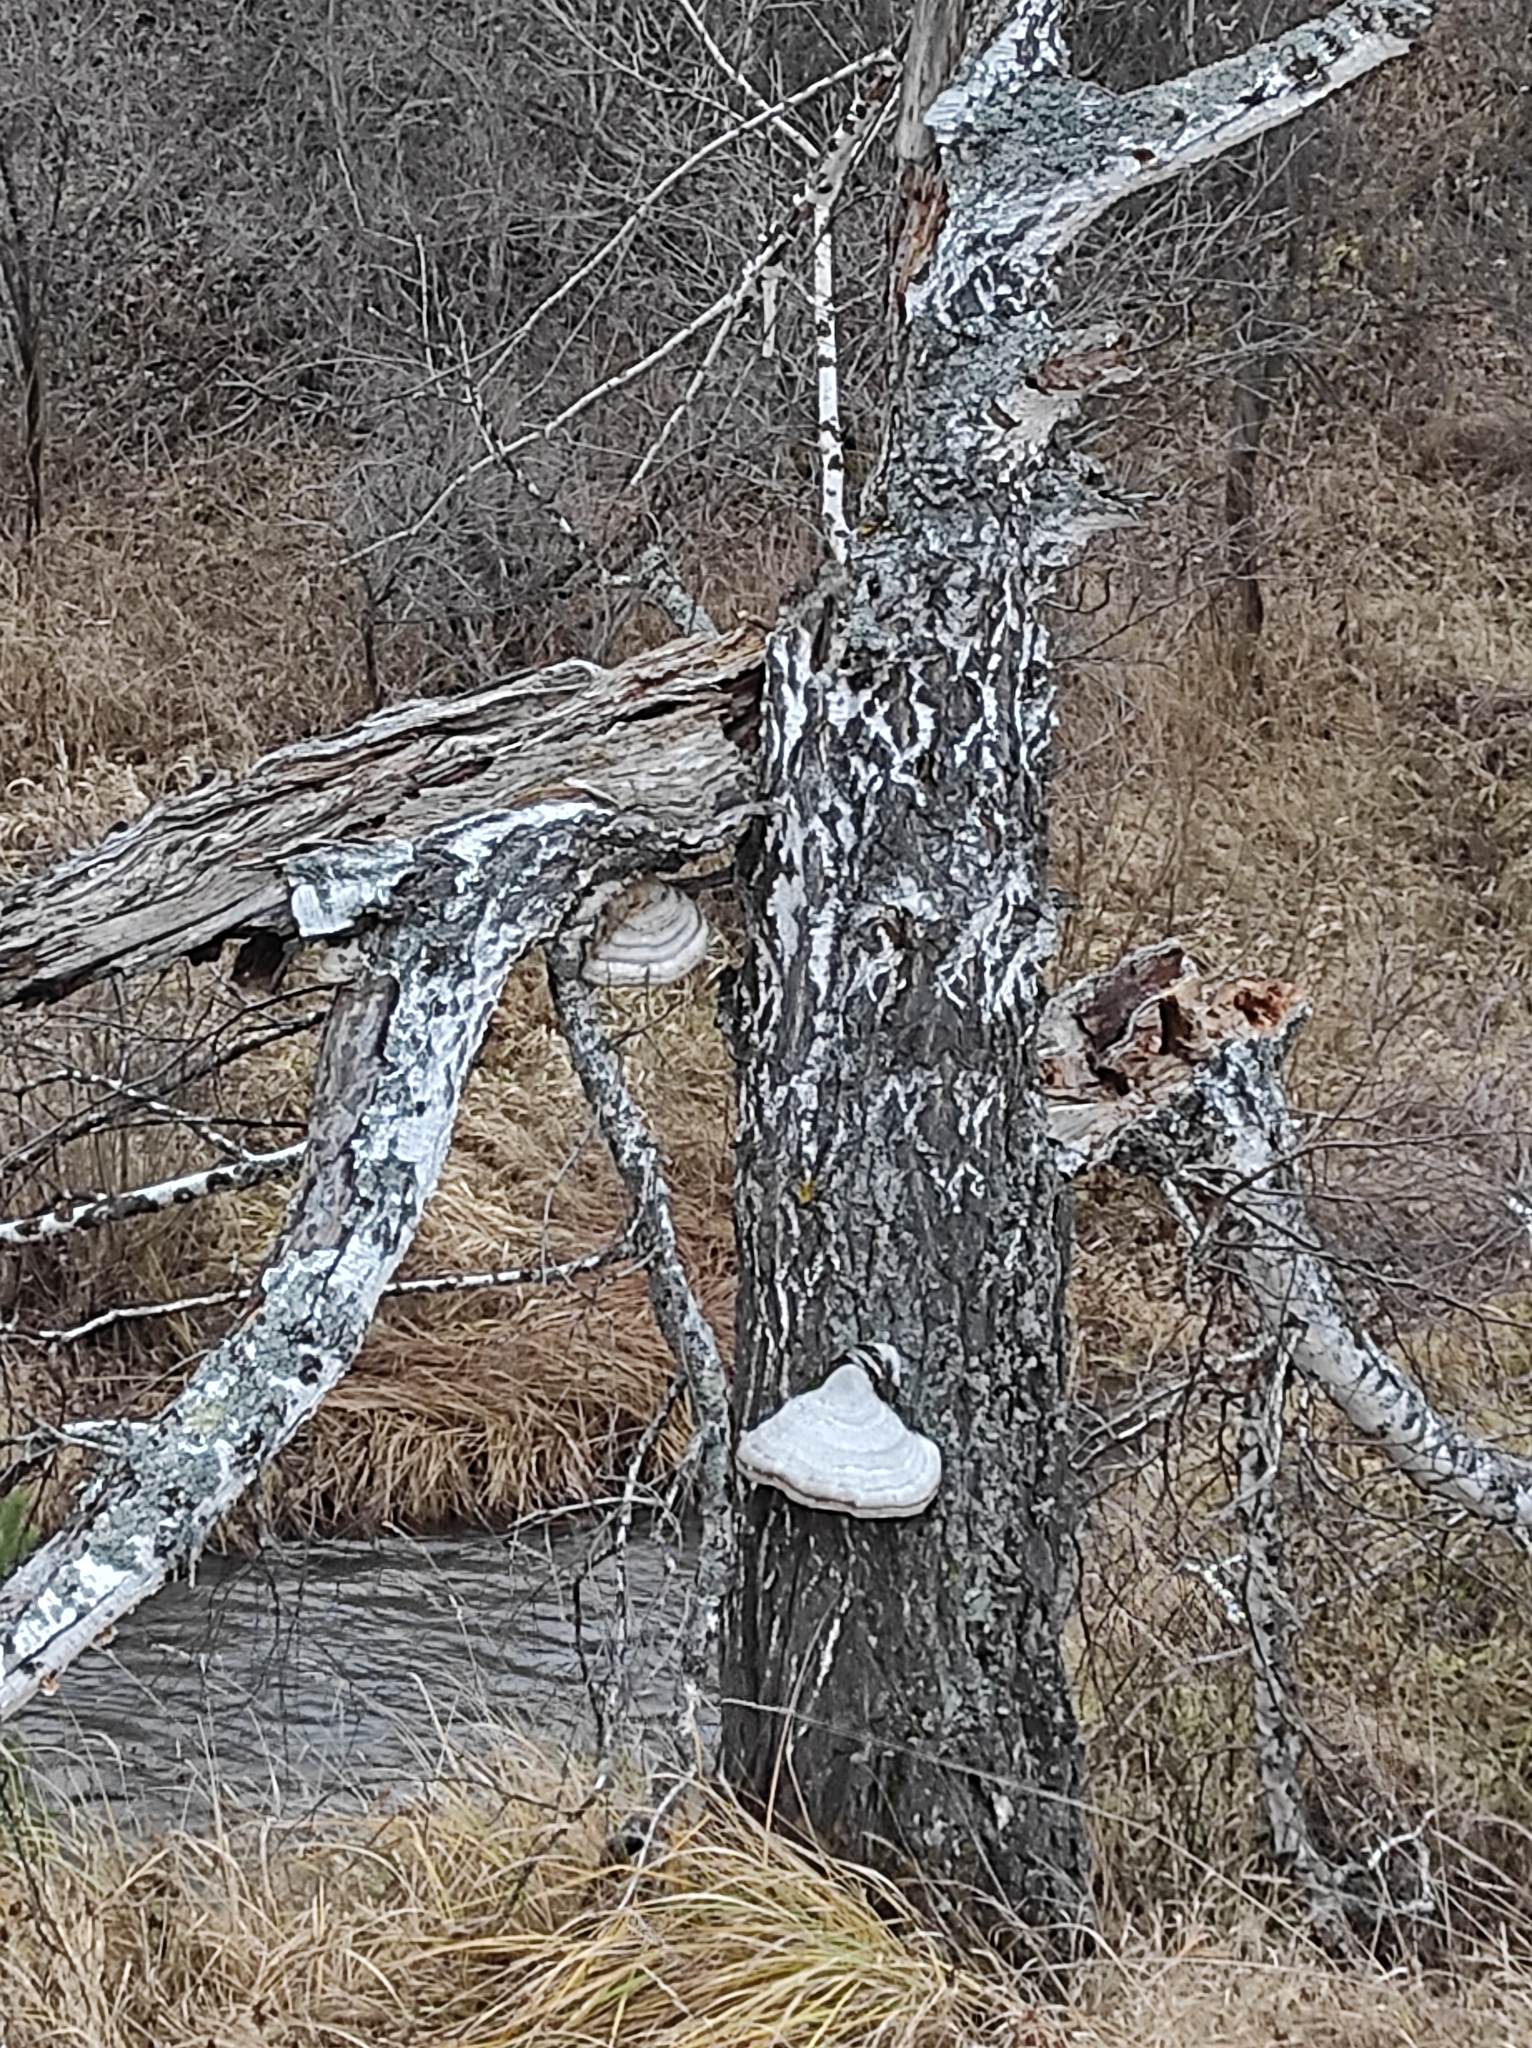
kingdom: Fungi
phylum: Basidiomycota
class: Agaricomycetes
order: Polyporales
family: Polyporaceae
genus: Fomes
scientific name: Fomes fomentarius
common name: Hoof fungus
